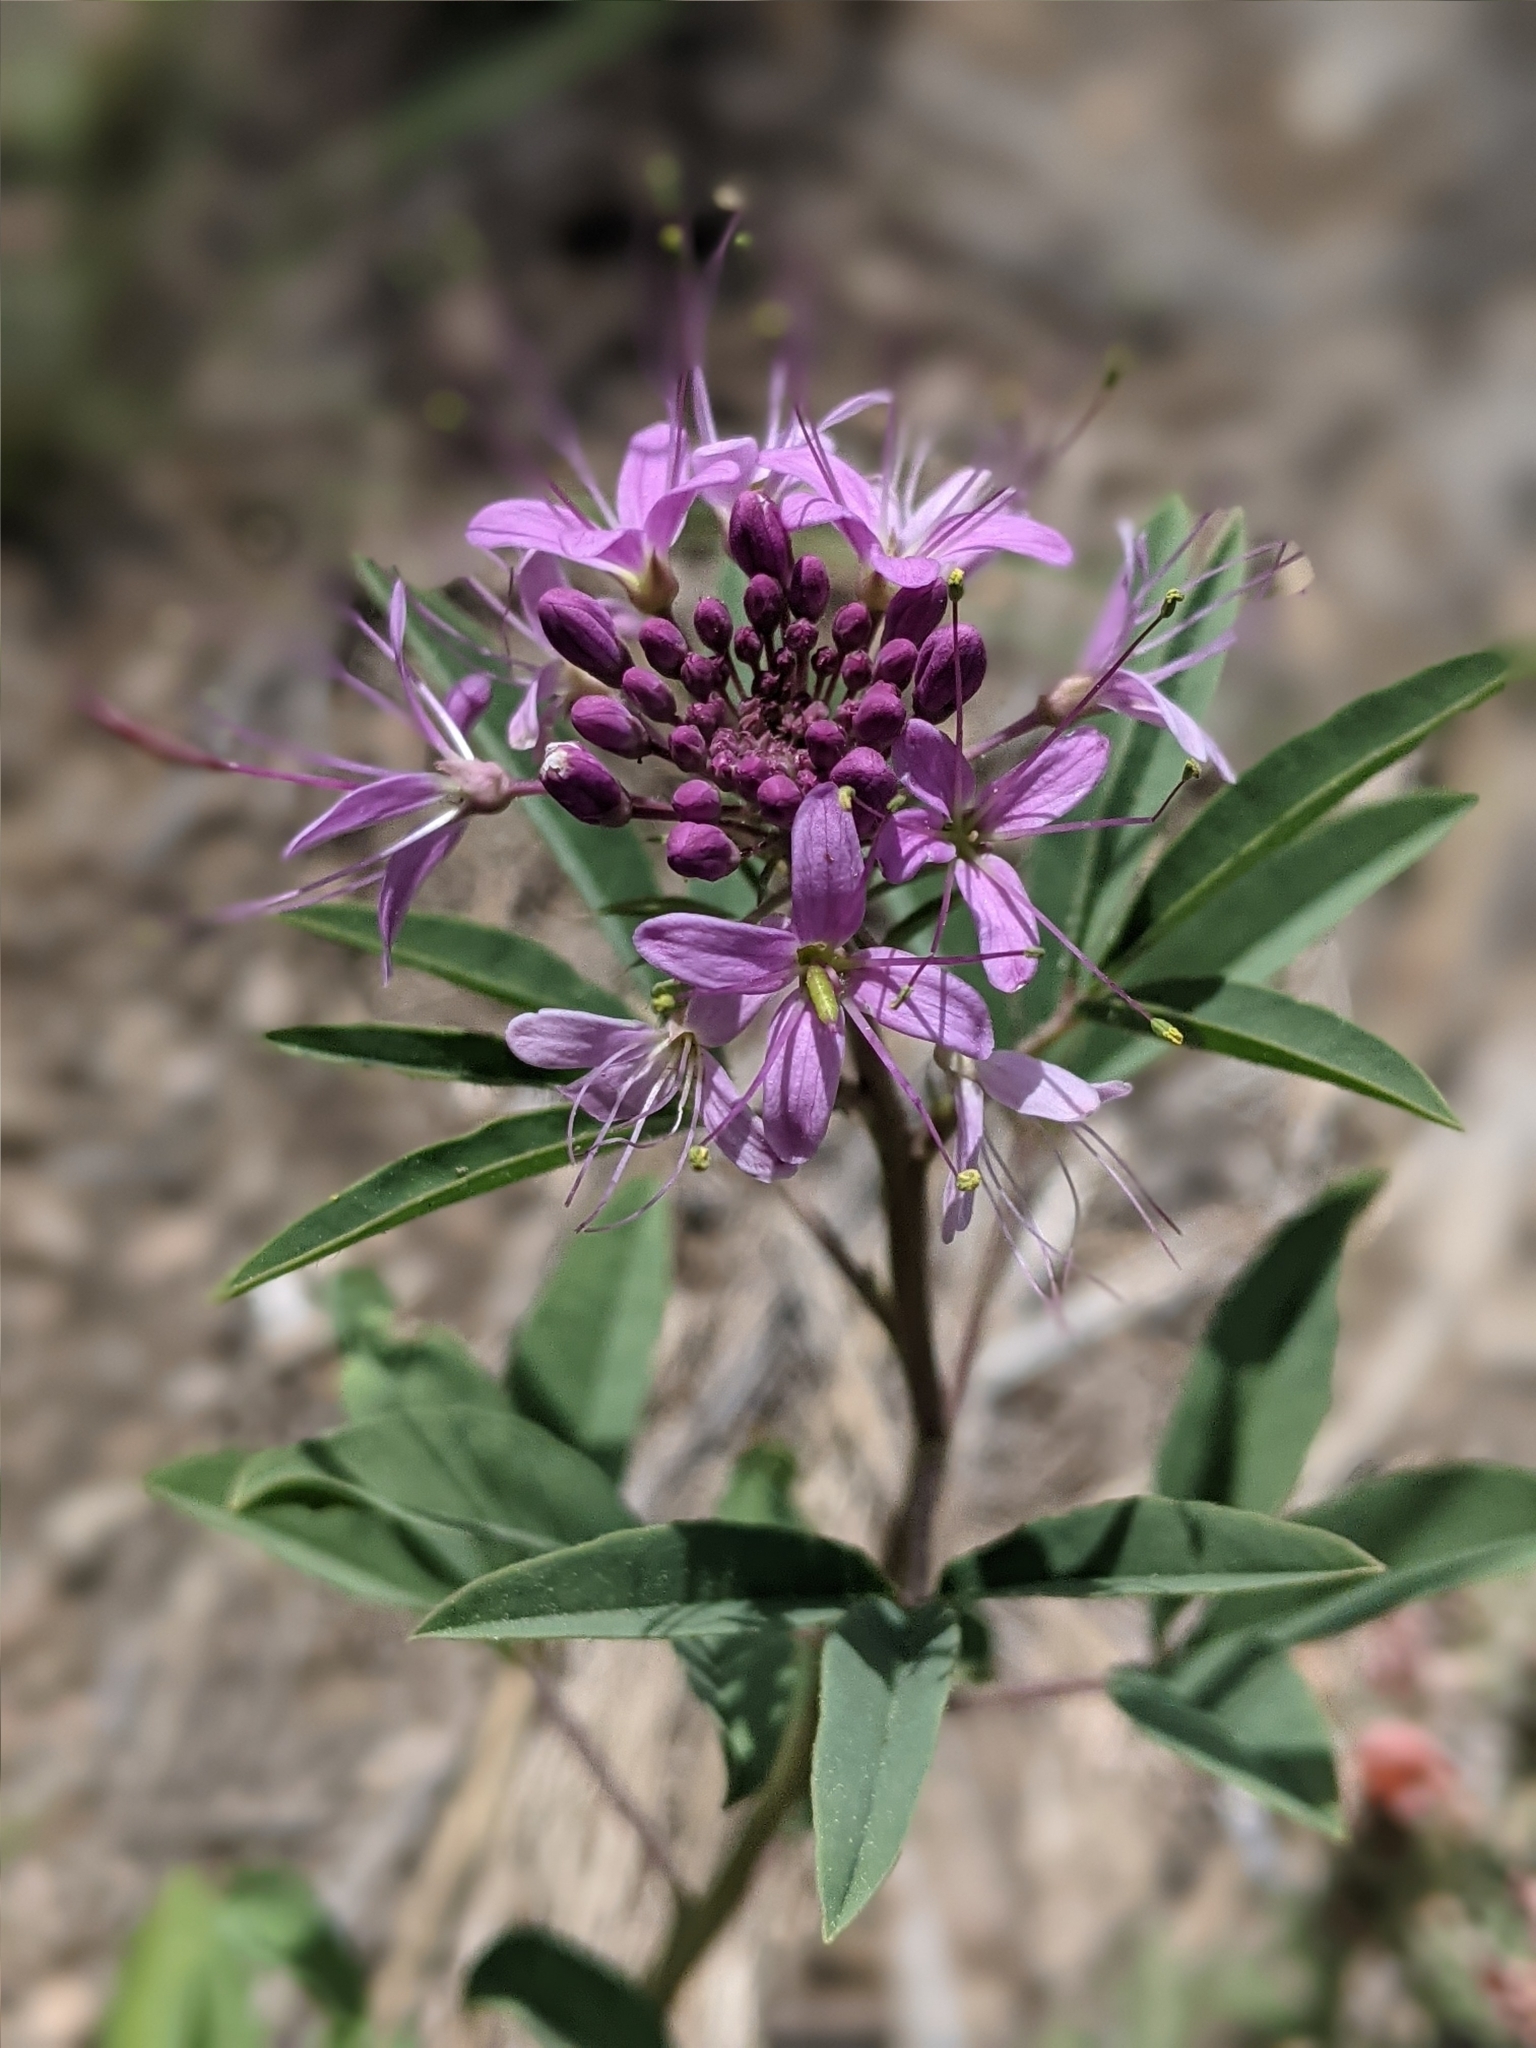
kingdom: Plantae
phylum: Tracheophyta
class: Magnoliopsida
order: Brassicales
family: Cleomaceae
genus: Cleomella
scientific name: Cleomella serrulata
